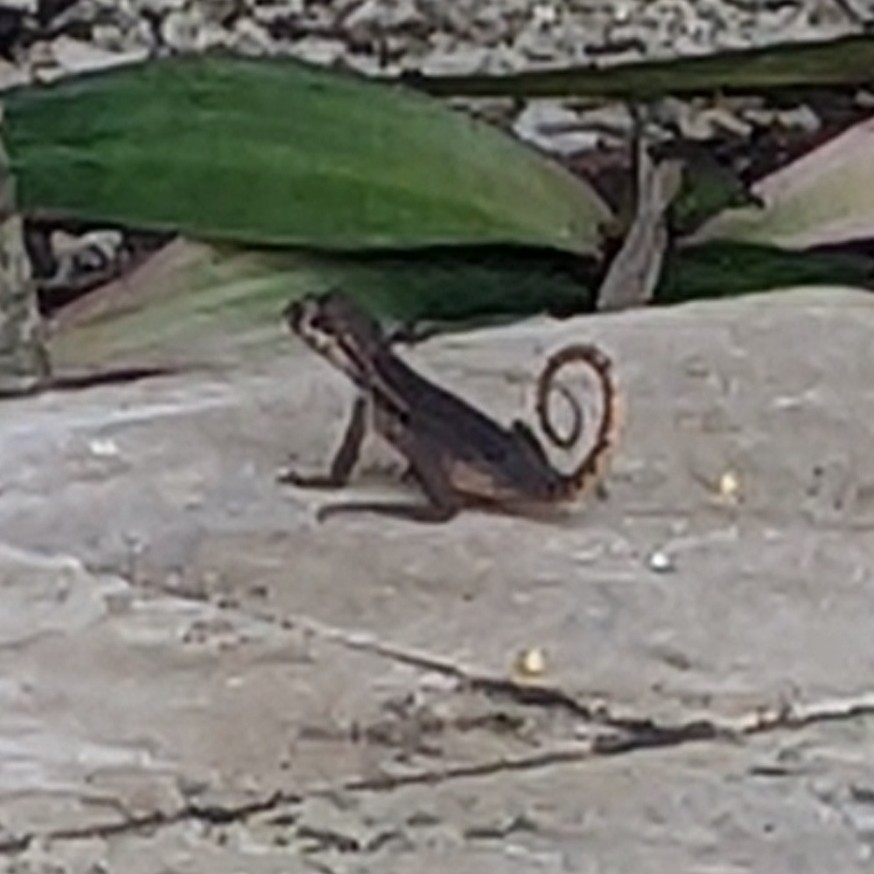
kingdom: Animalia
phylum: Chordata
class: Squamata
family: Leiocephalidae
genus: Leiocephalus
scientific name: Leiocephalus carinatus
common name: Northern curly-tailed lizard
